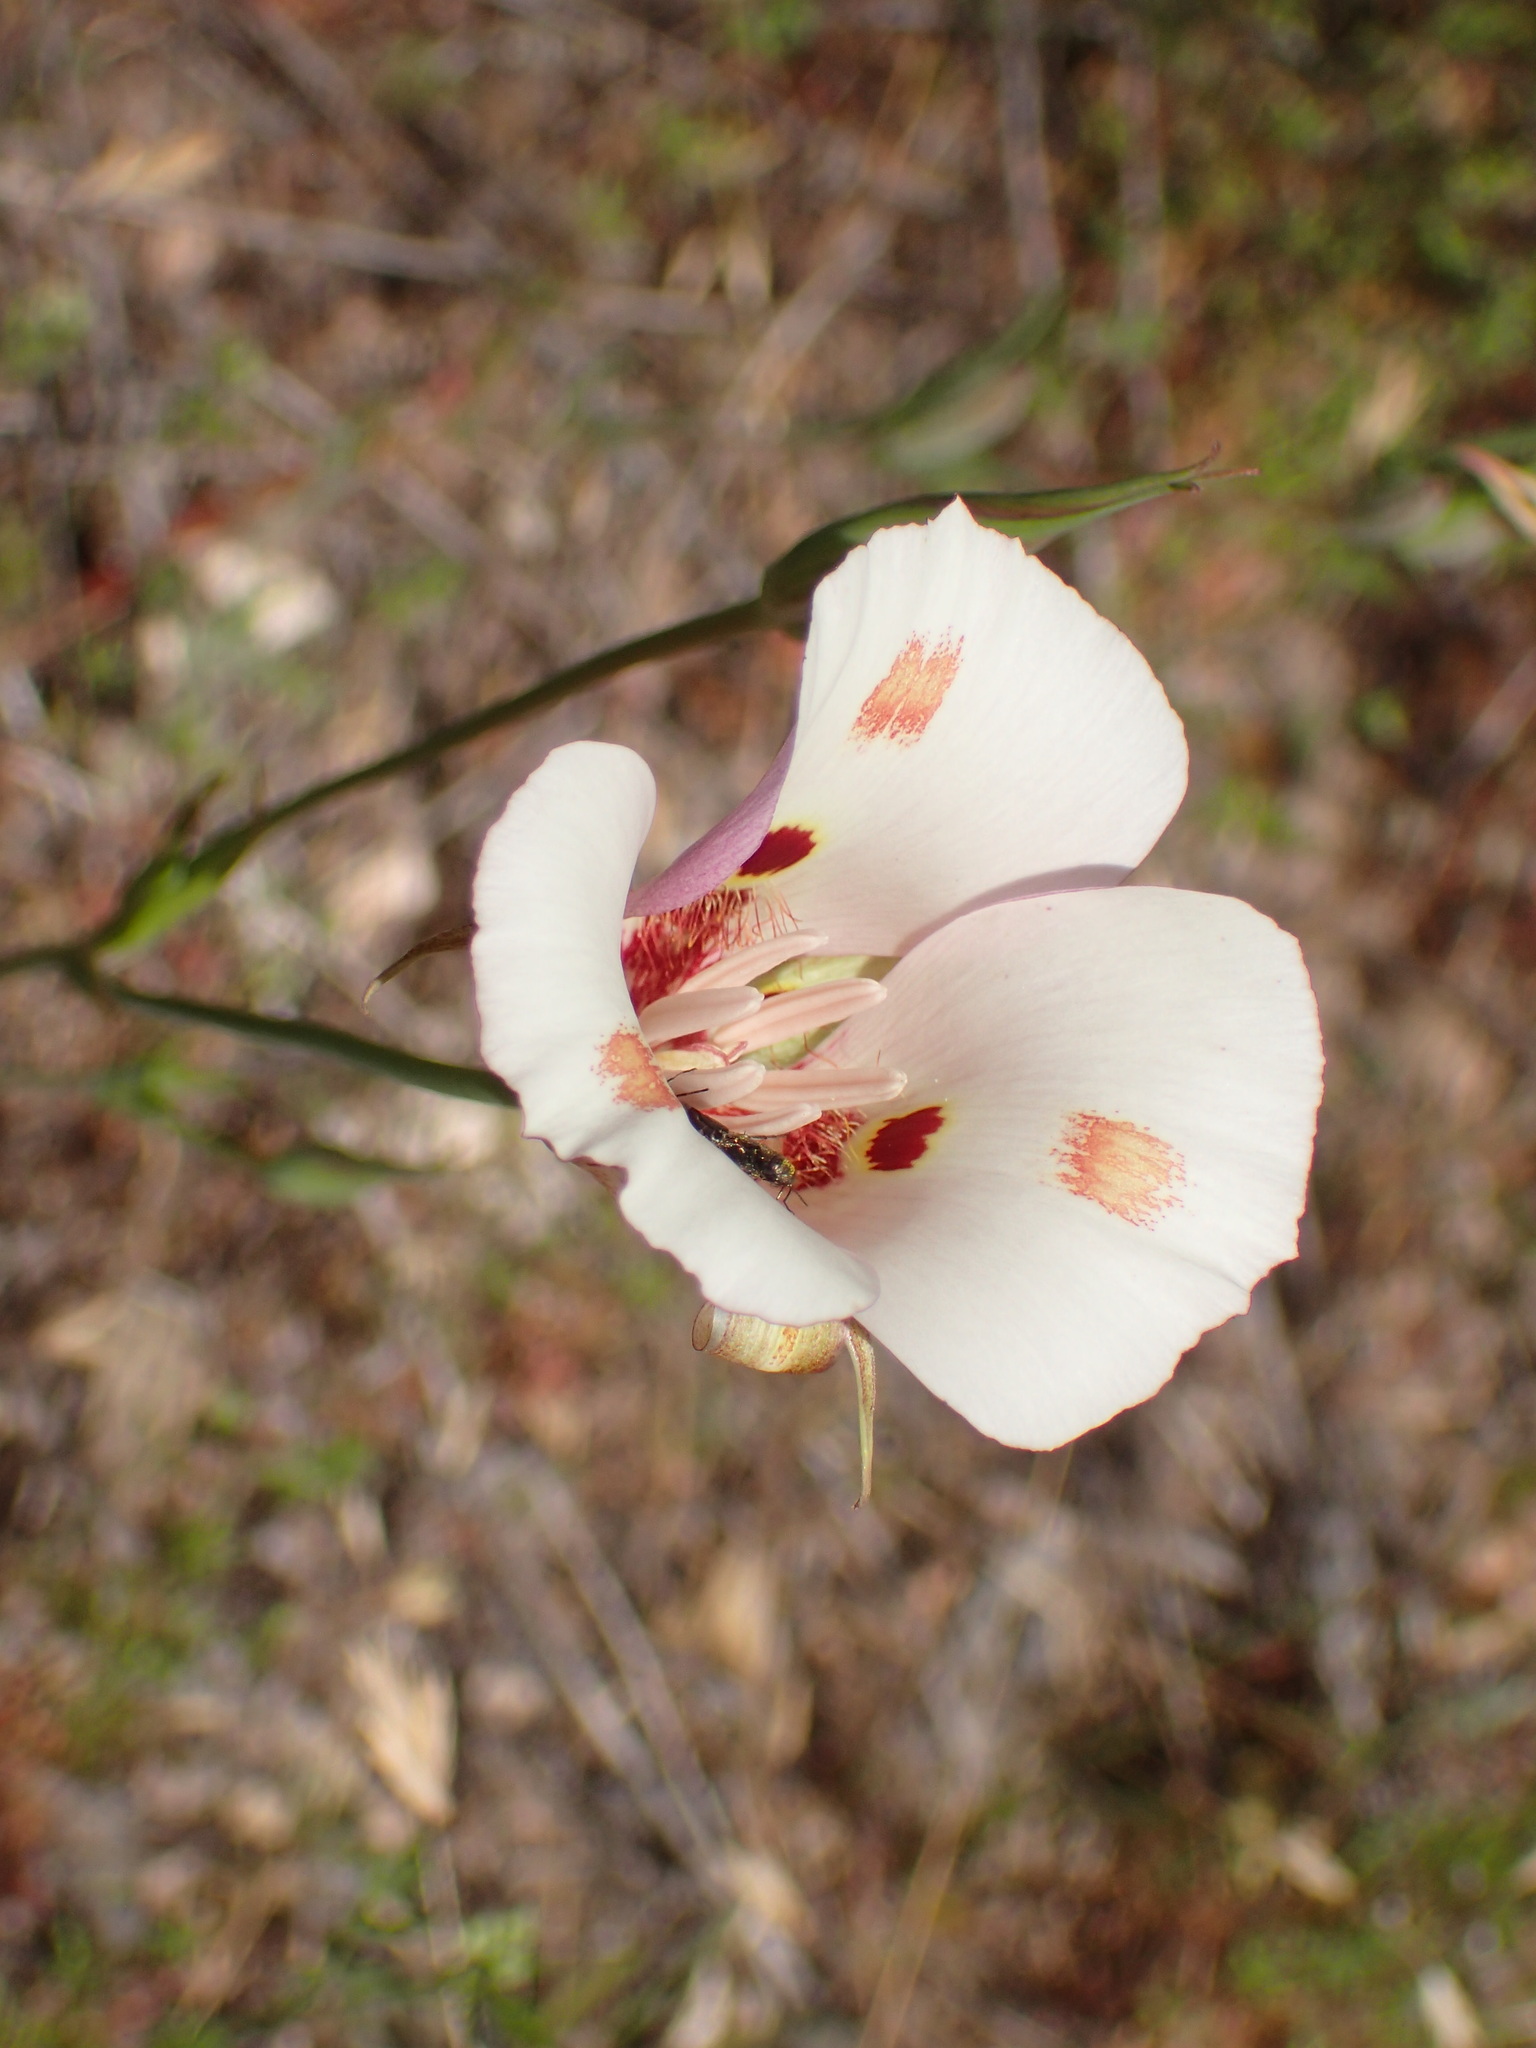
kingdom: Plantae
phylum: Tracheophyta
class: Liliopsida
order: Liliales
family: Liliaceae
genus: Calochortus
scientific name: Calochortus venustus
